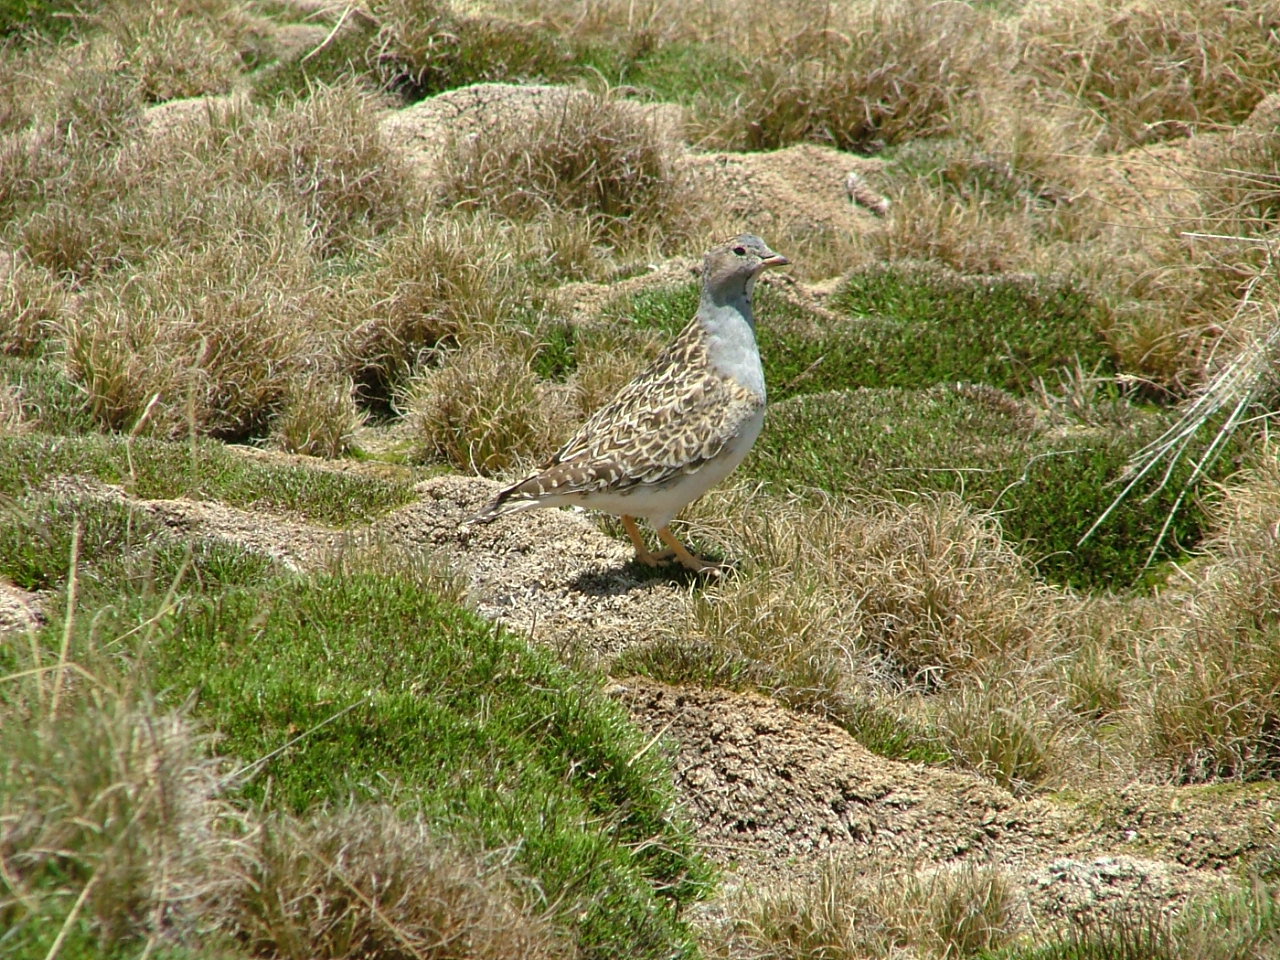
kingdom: Animalia
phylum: Chordata
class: Aves
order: Charadriiformes
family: Thinocoridae
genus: Thinocorus
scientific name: Thinocorus orbignyianus
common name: Grey-breasted seedsnipe
